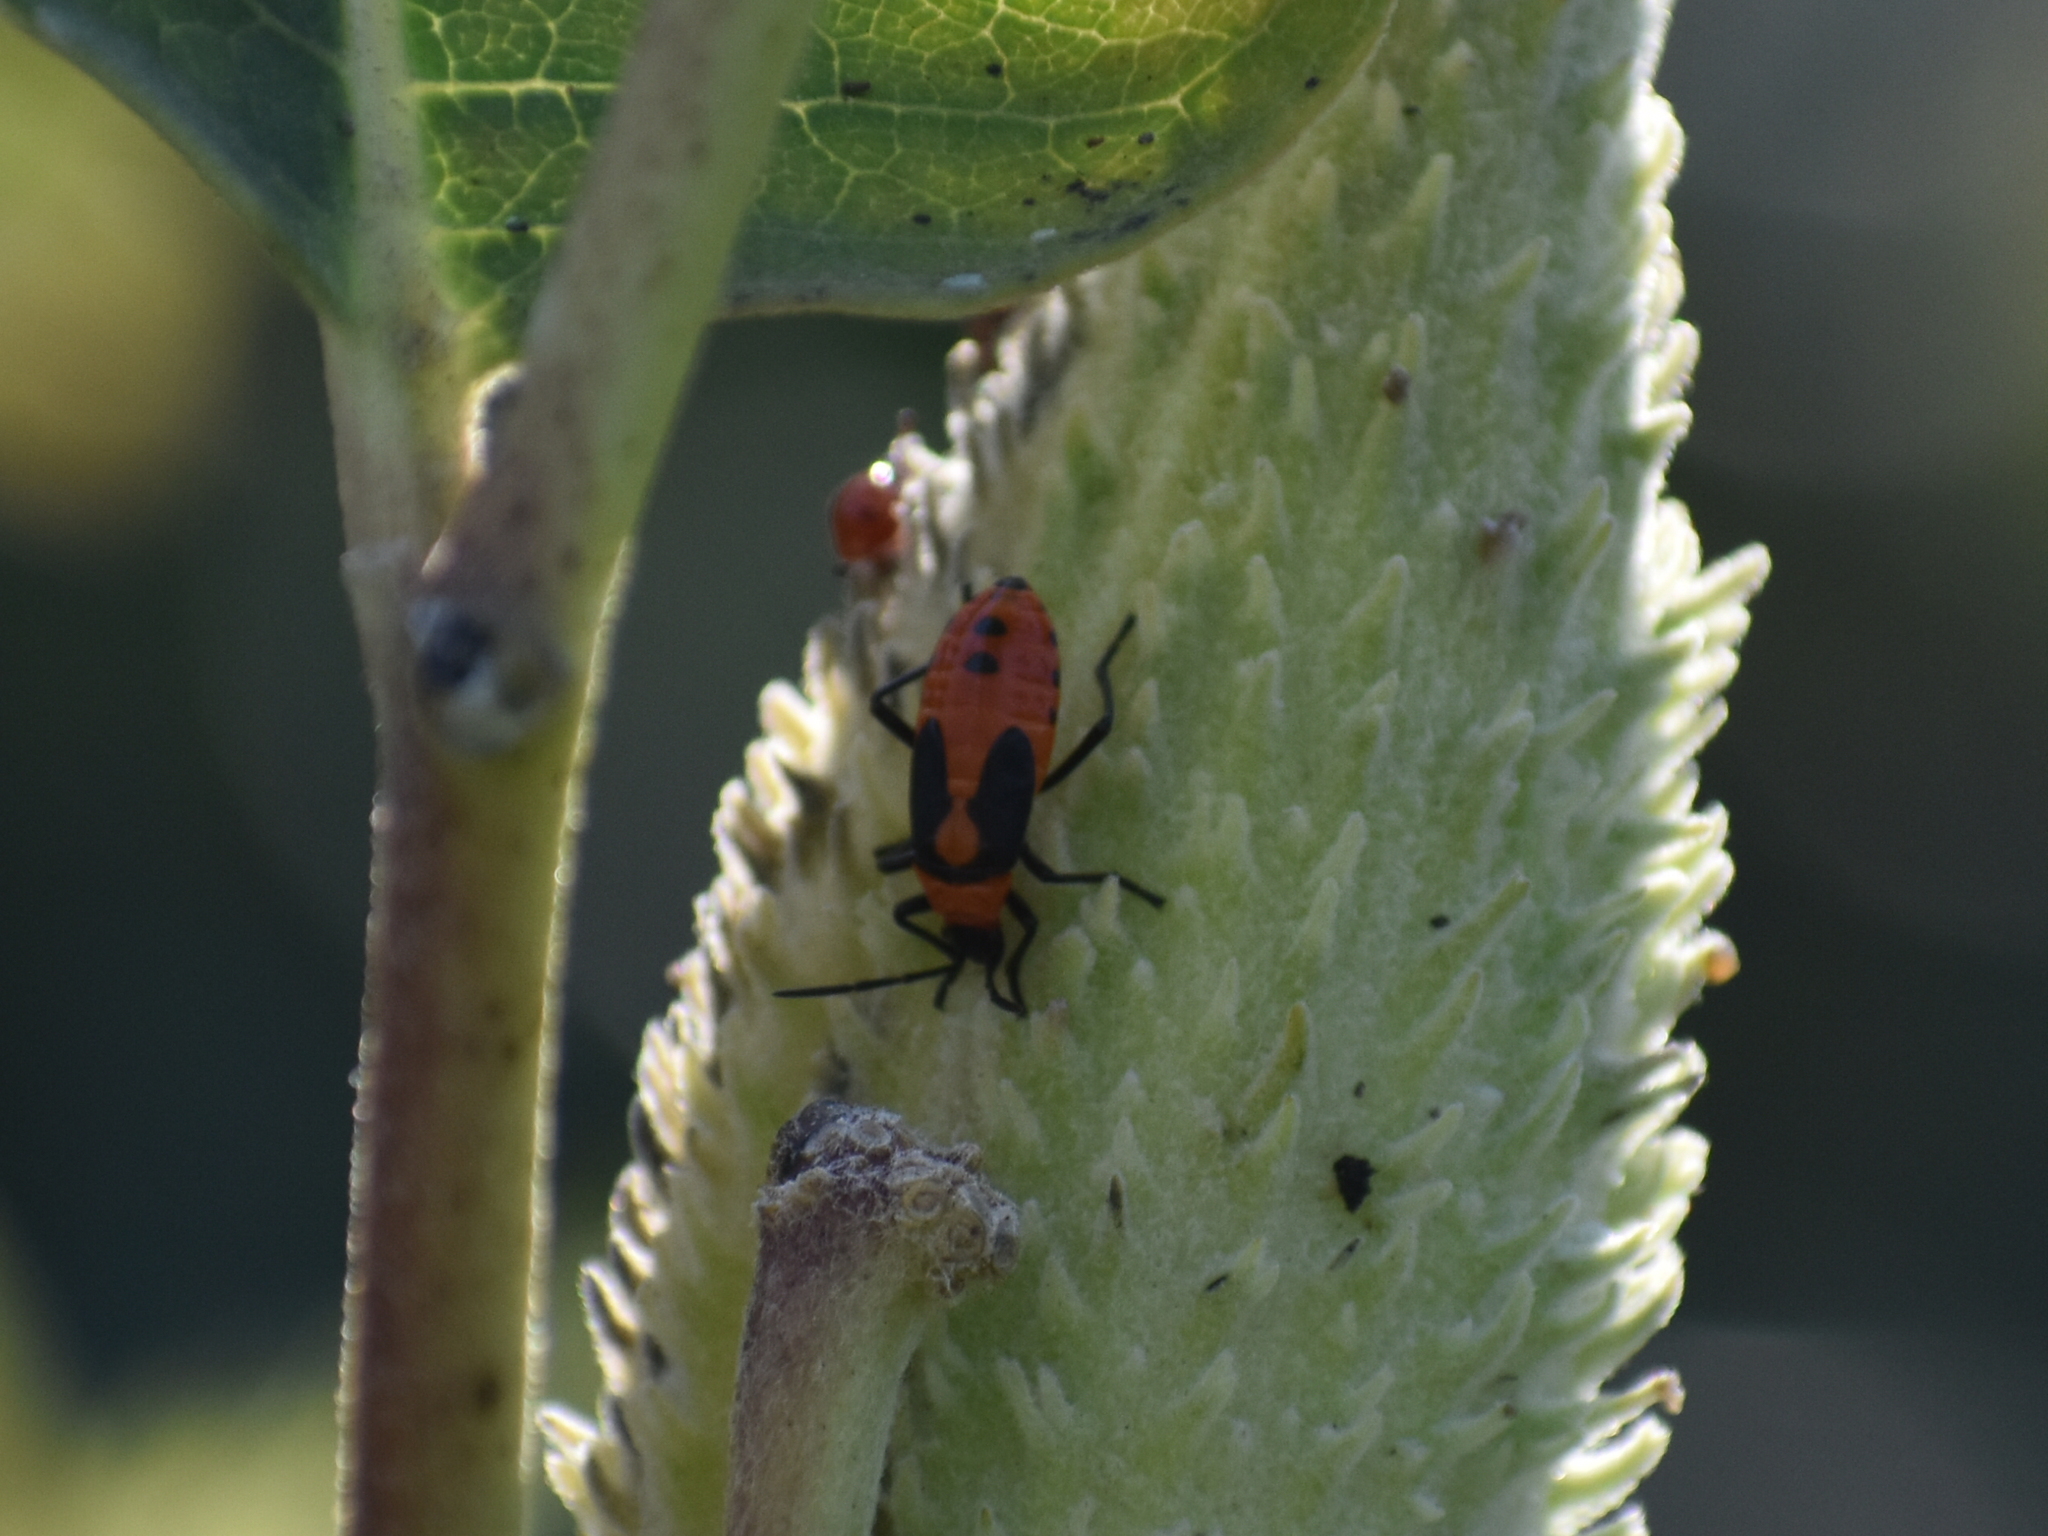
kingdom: Animalia
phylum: Arthropoda
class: Insecta
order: Hemiptera
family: Lygaeidae
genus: Oncopeltus
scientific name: Oncopeltus fasciatus
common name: Large milkweed bug
